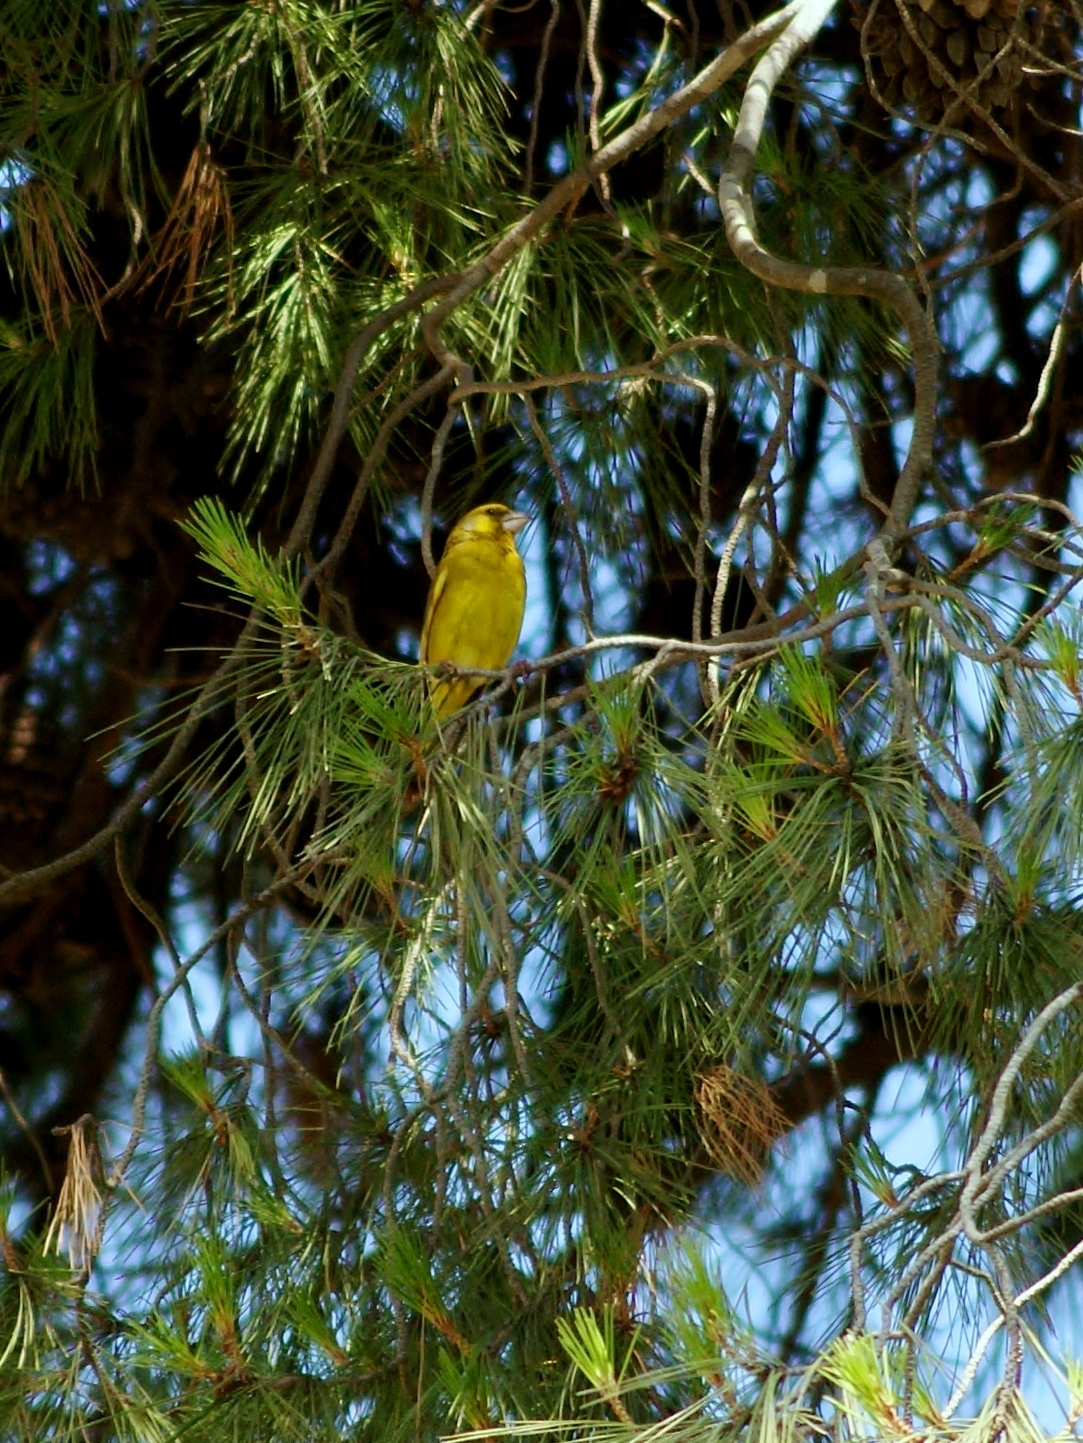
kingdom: Plantae
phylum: Tracheophyta
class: Liliopsida
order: Poales
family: Poaceae
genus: Chloris
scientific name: Chloris chloris
